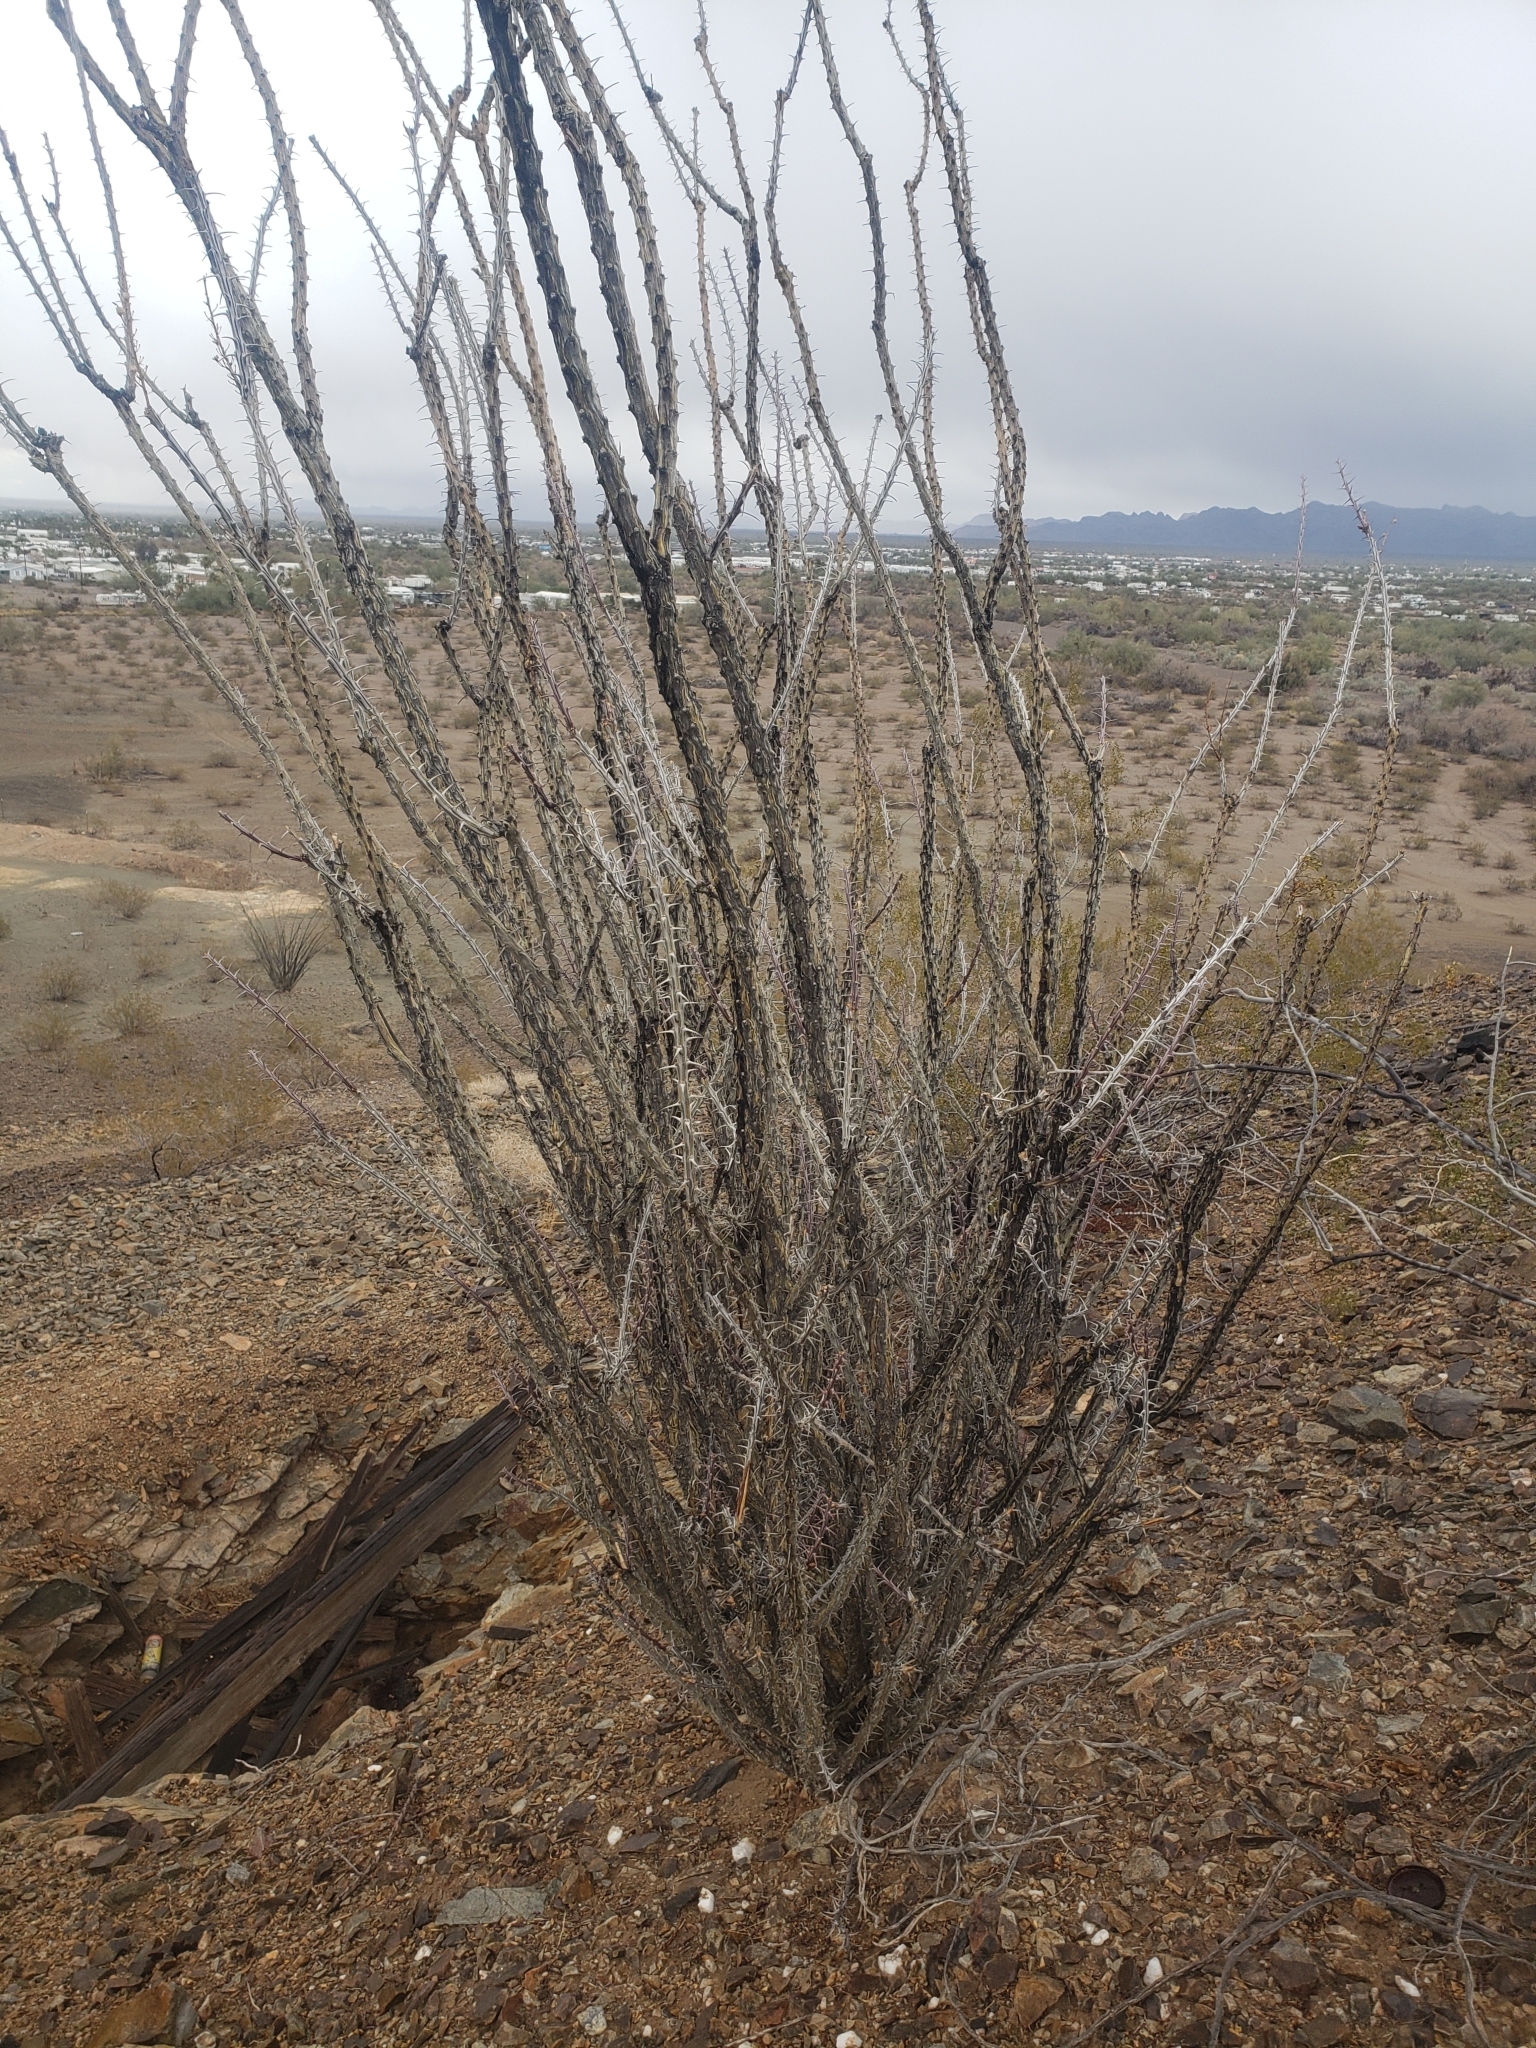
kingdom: Plantae
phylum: Tracheophyta
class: Magnoliopsida
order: Ericales
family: Fouquieriaceae
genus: Fouquieria
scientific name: Fouquieria splendens
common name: Vine-cactus
